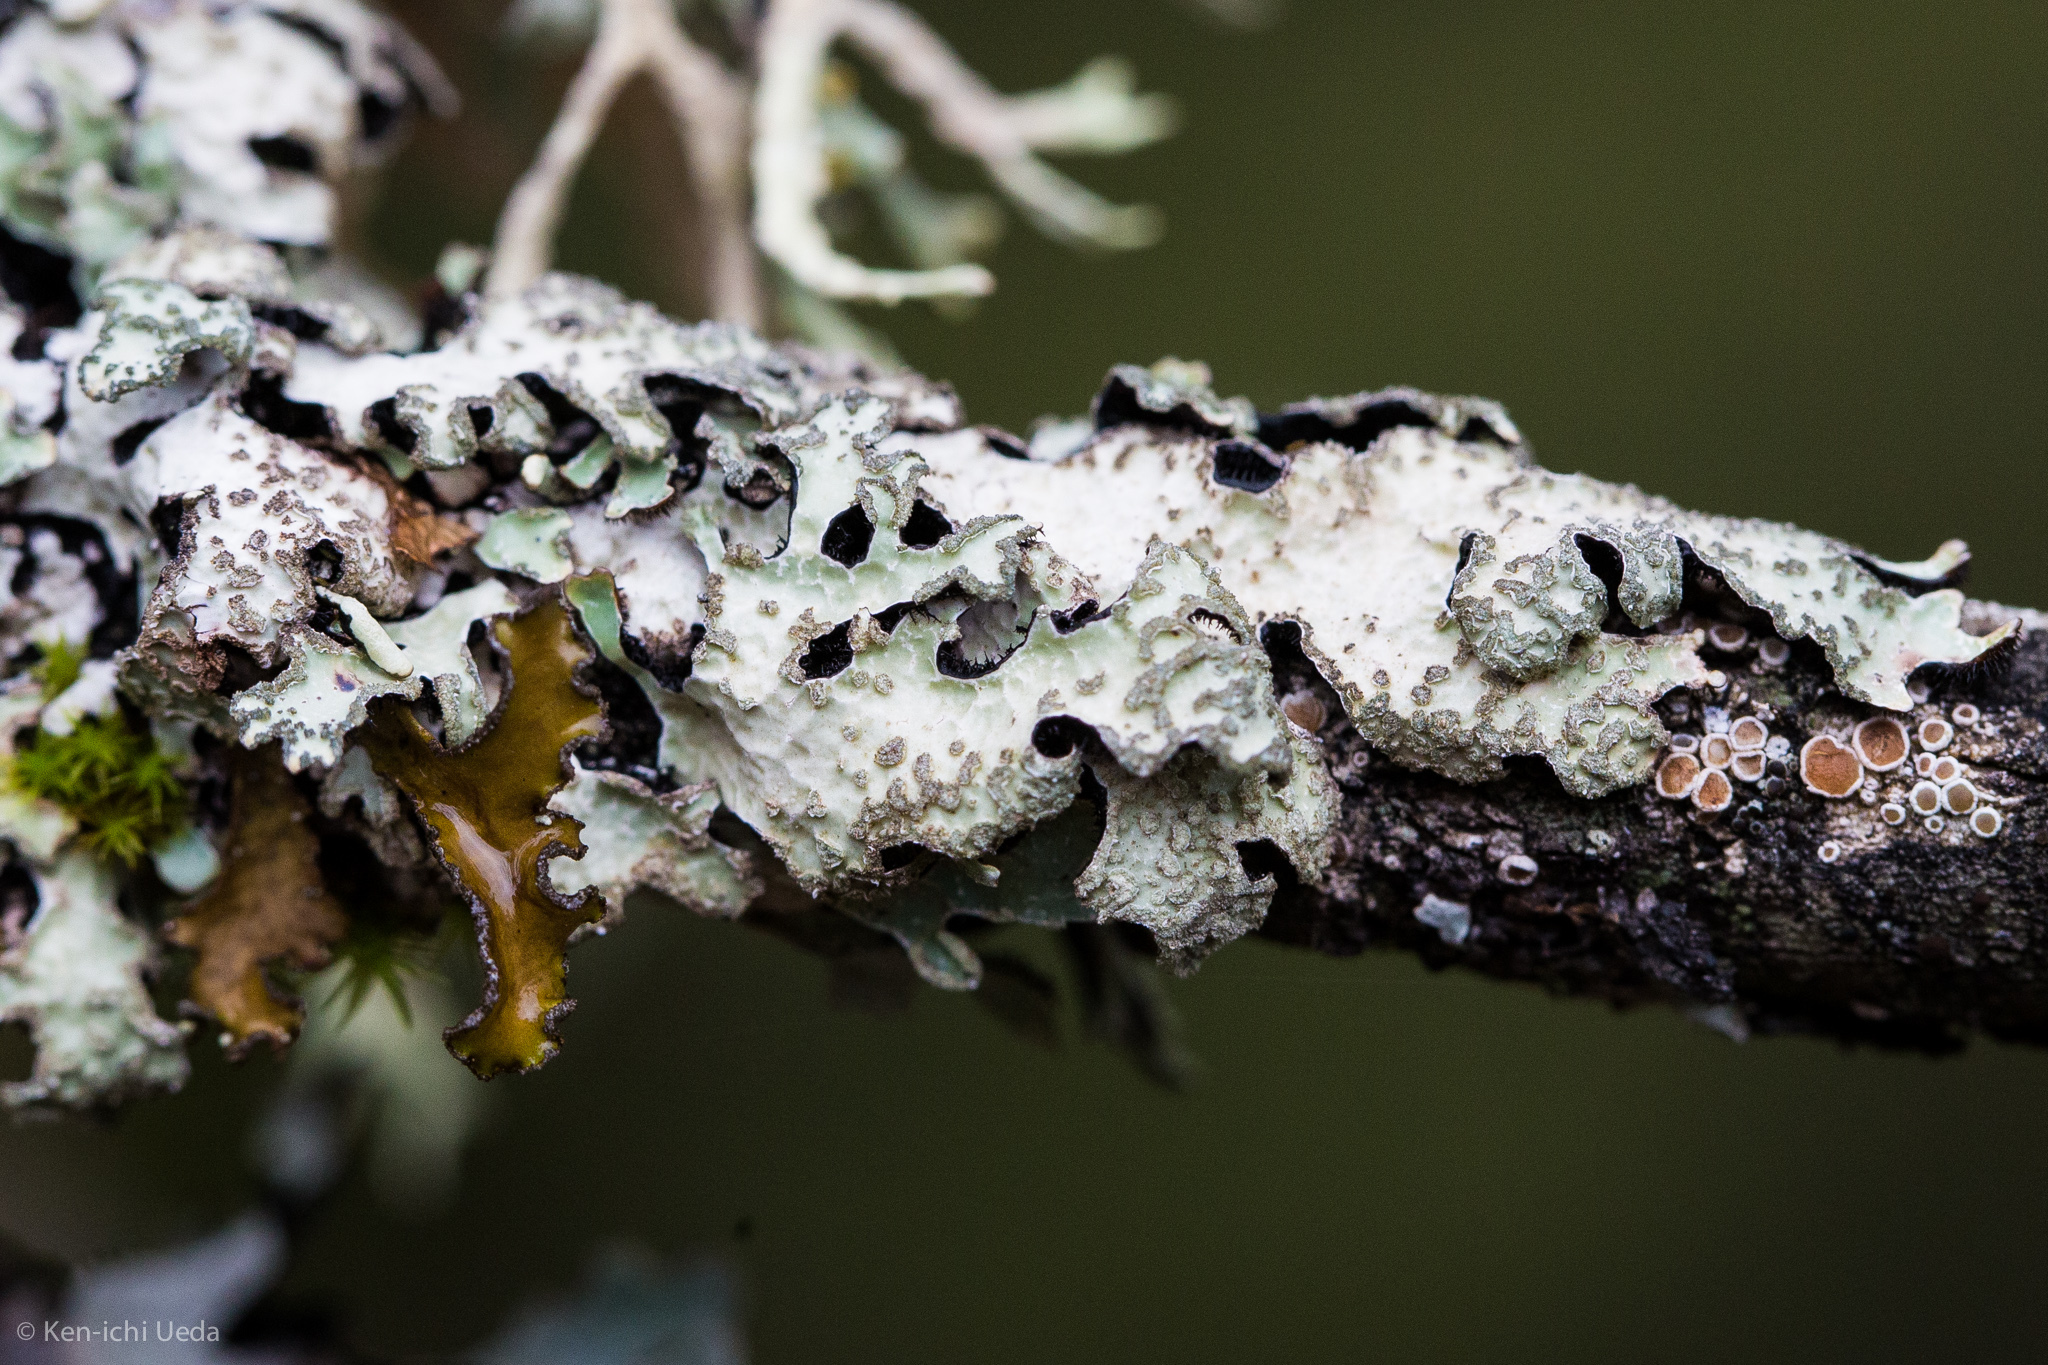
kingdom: Fungi
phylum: Ascomycota
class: Lecanoromycetes
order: Lecanorales
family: Parmeliaceae
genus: Parmelia
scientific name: Parmelia sulcata
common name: Netted shield lichen
